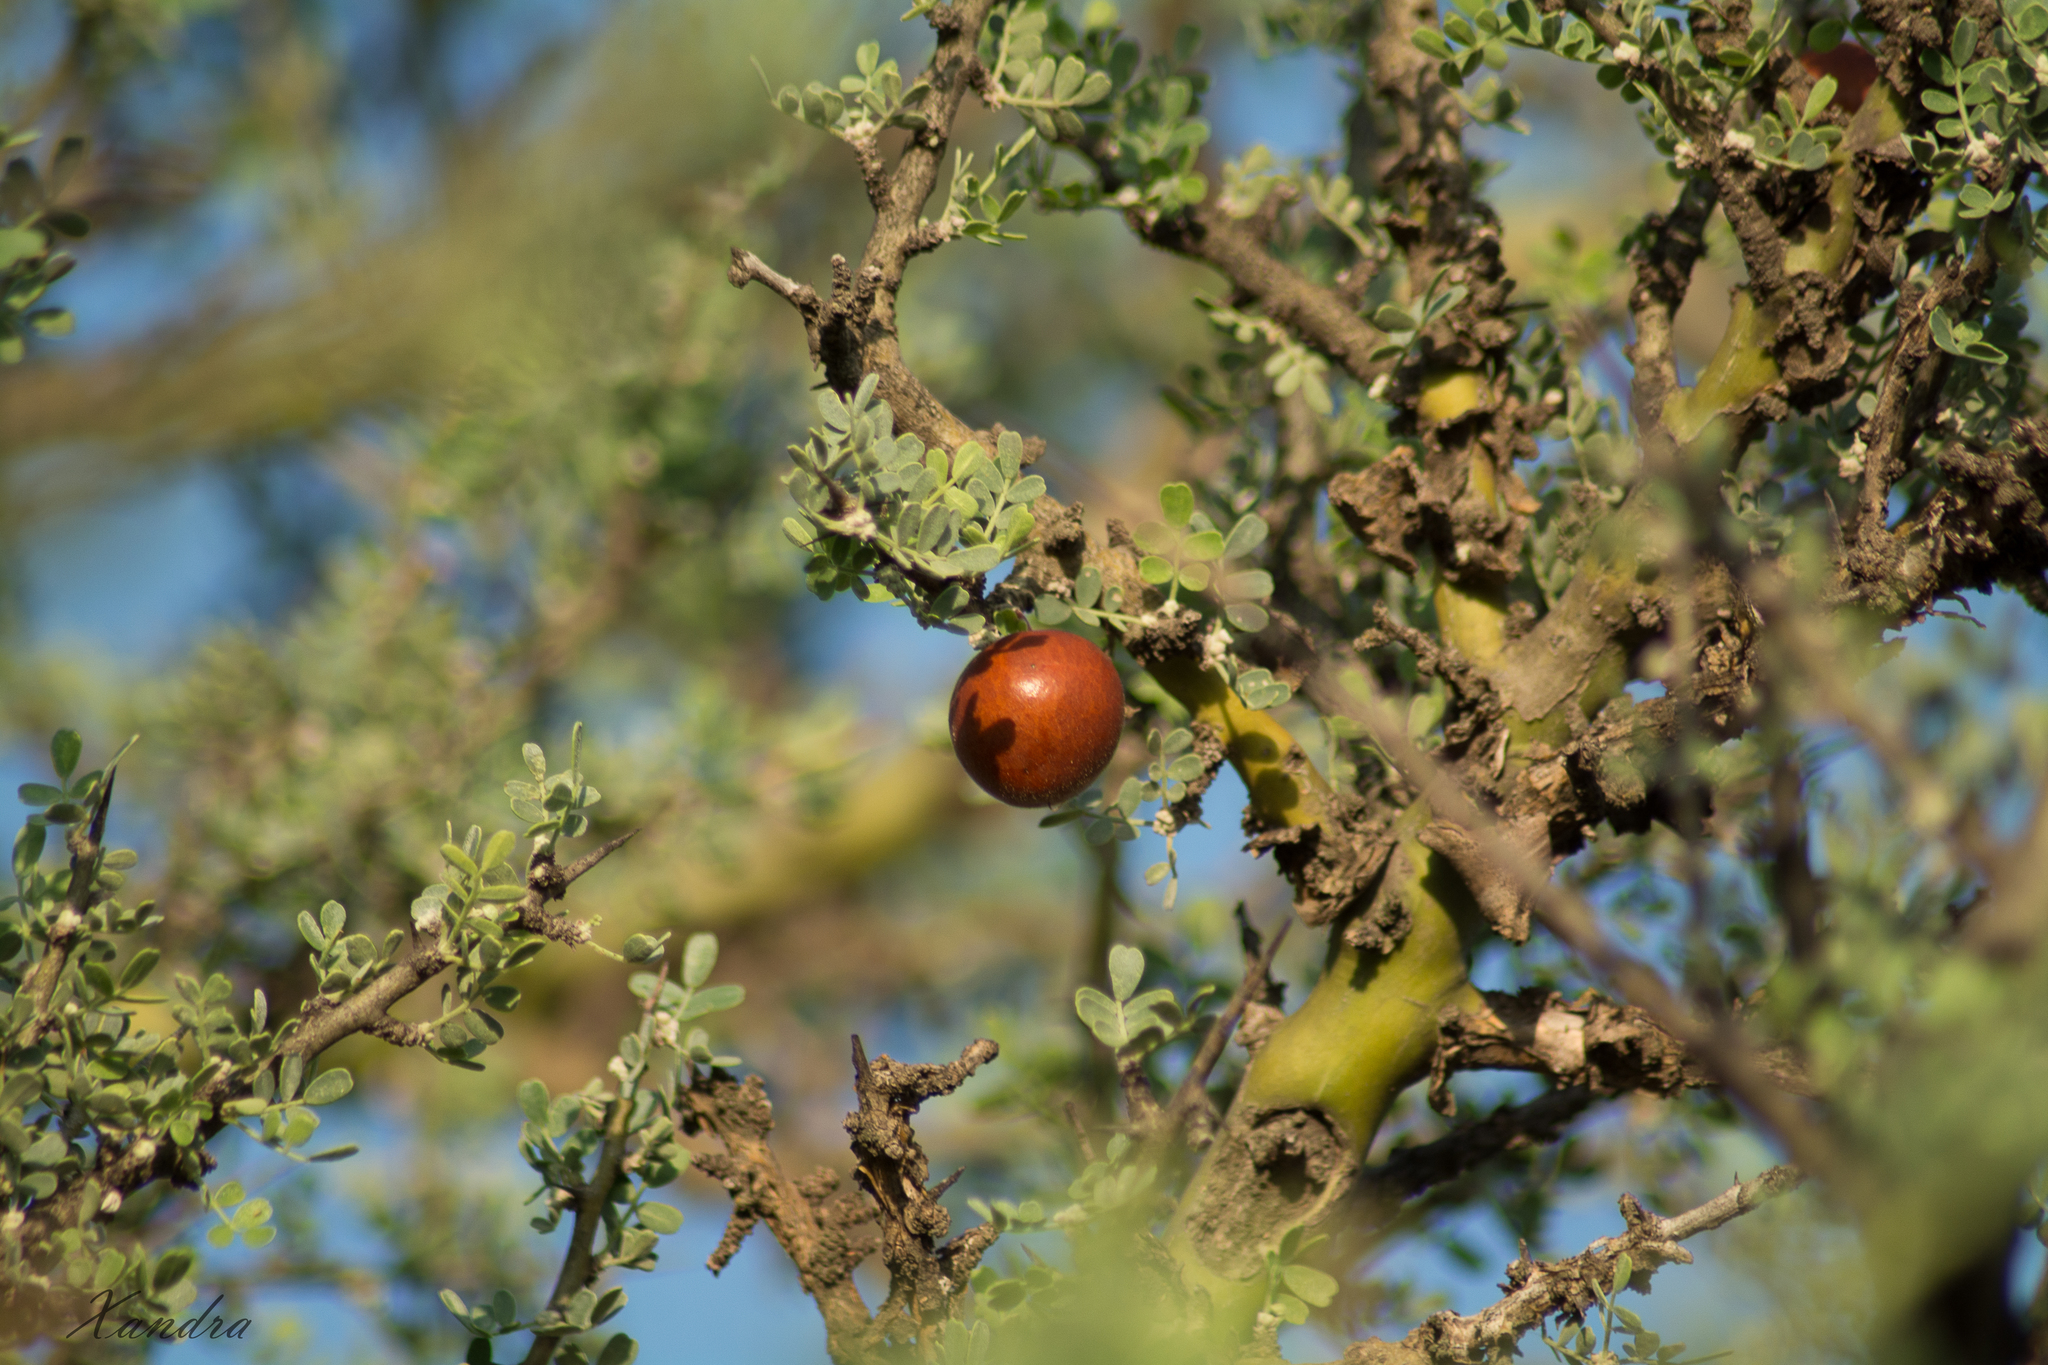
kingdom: Plantae
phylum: Tracheophyta
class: Magnoliopsida
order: Fabales
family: Fabaceae
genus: Geoffroea
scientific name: Geoffroea decorticans
